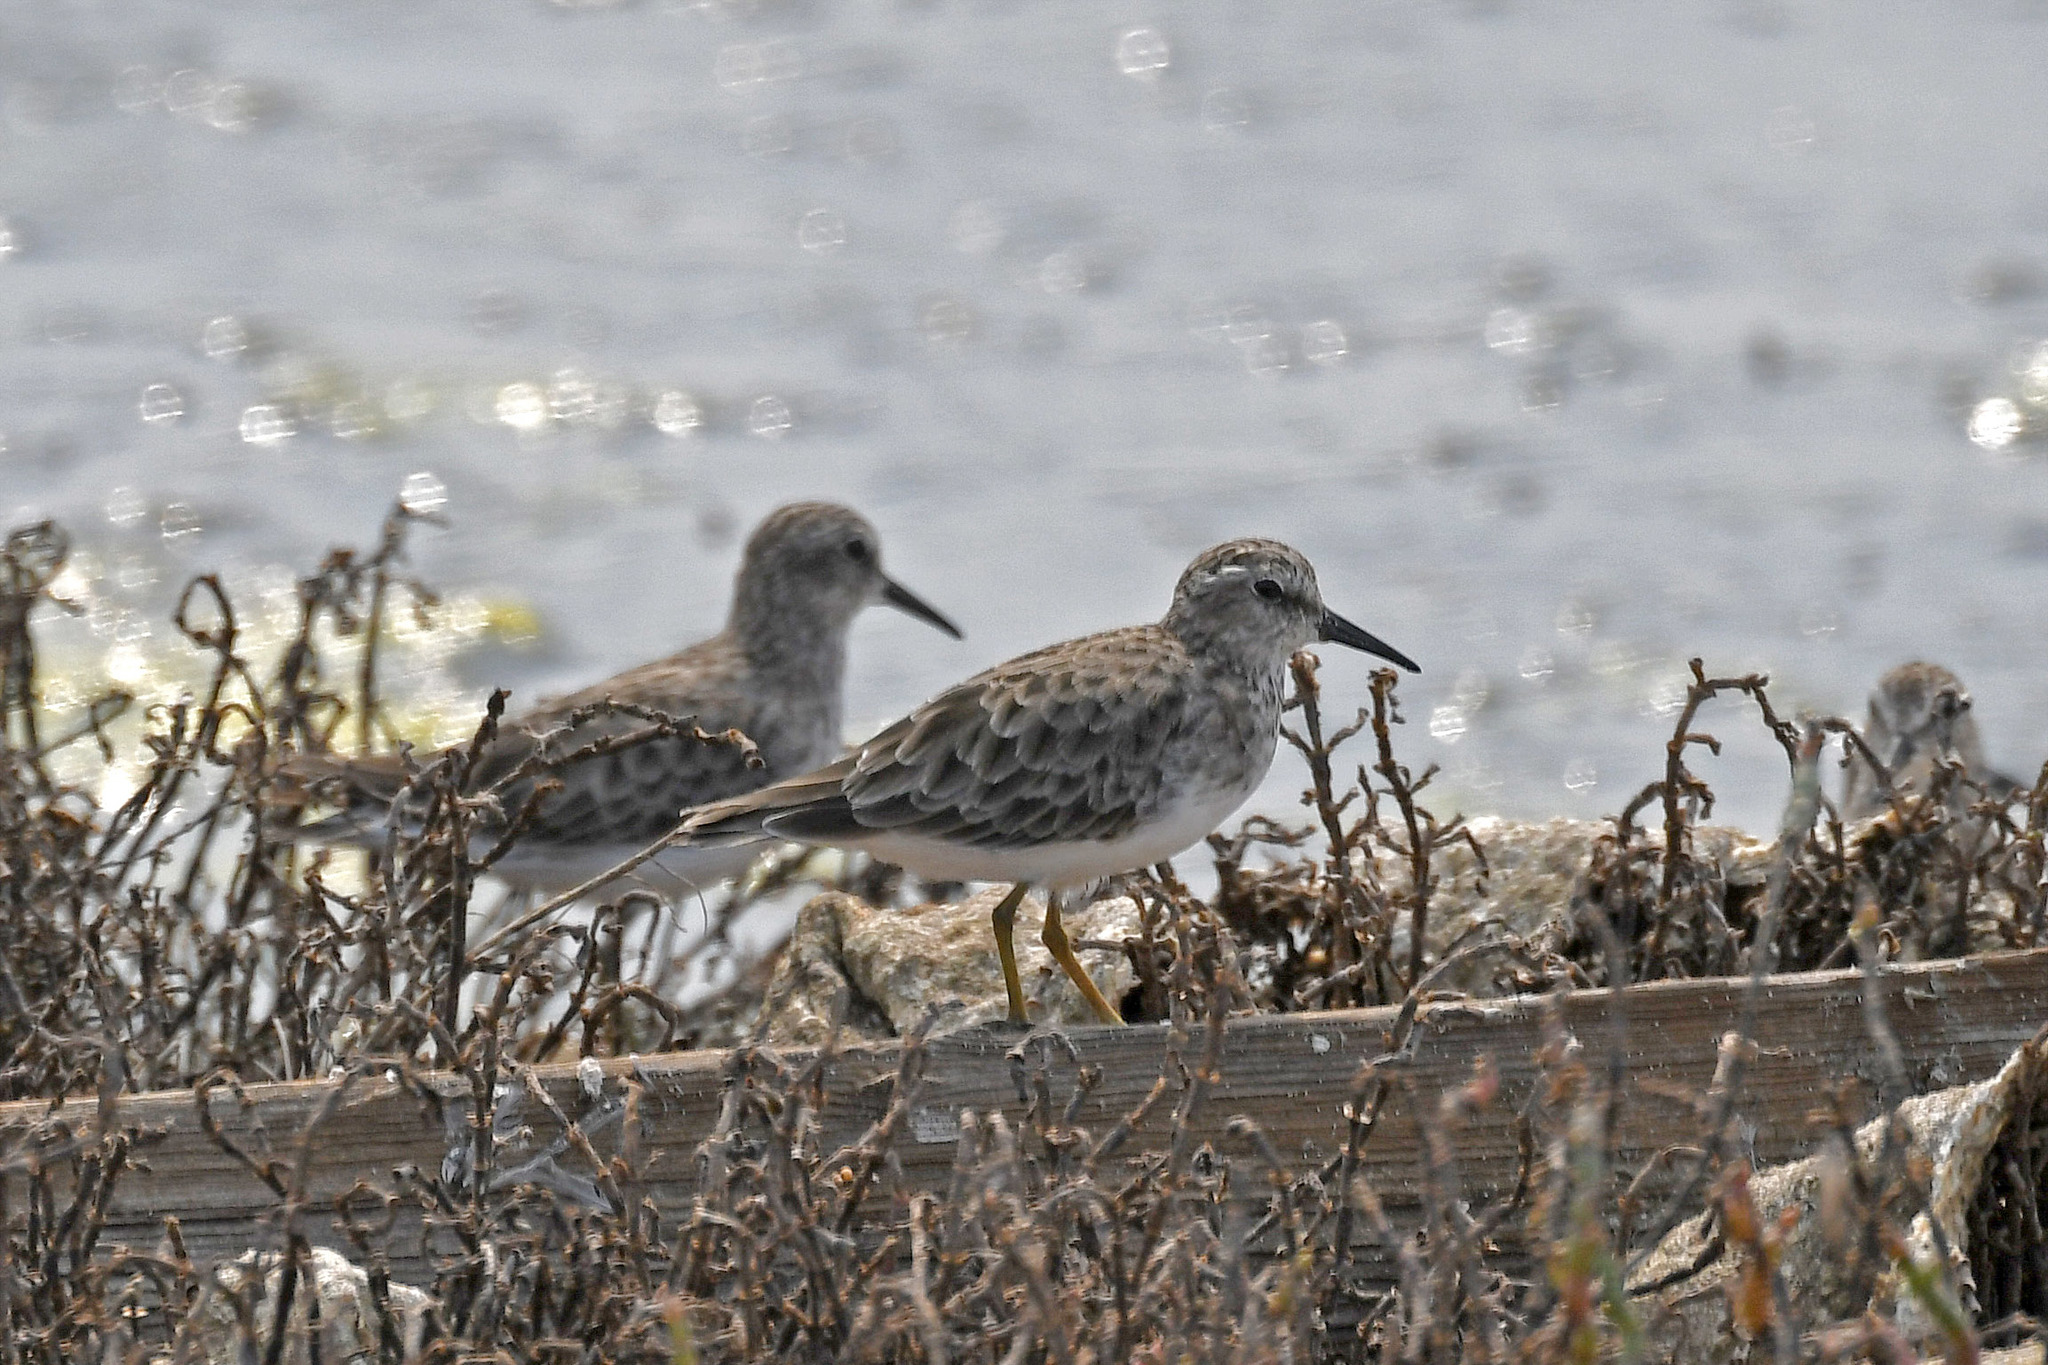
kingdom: Animalia
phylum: Chordata
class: Aves
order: Charadriiformes
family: Scolopacidae
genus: Calidris
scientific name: Calidris minutilla
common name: Least sandpiper
